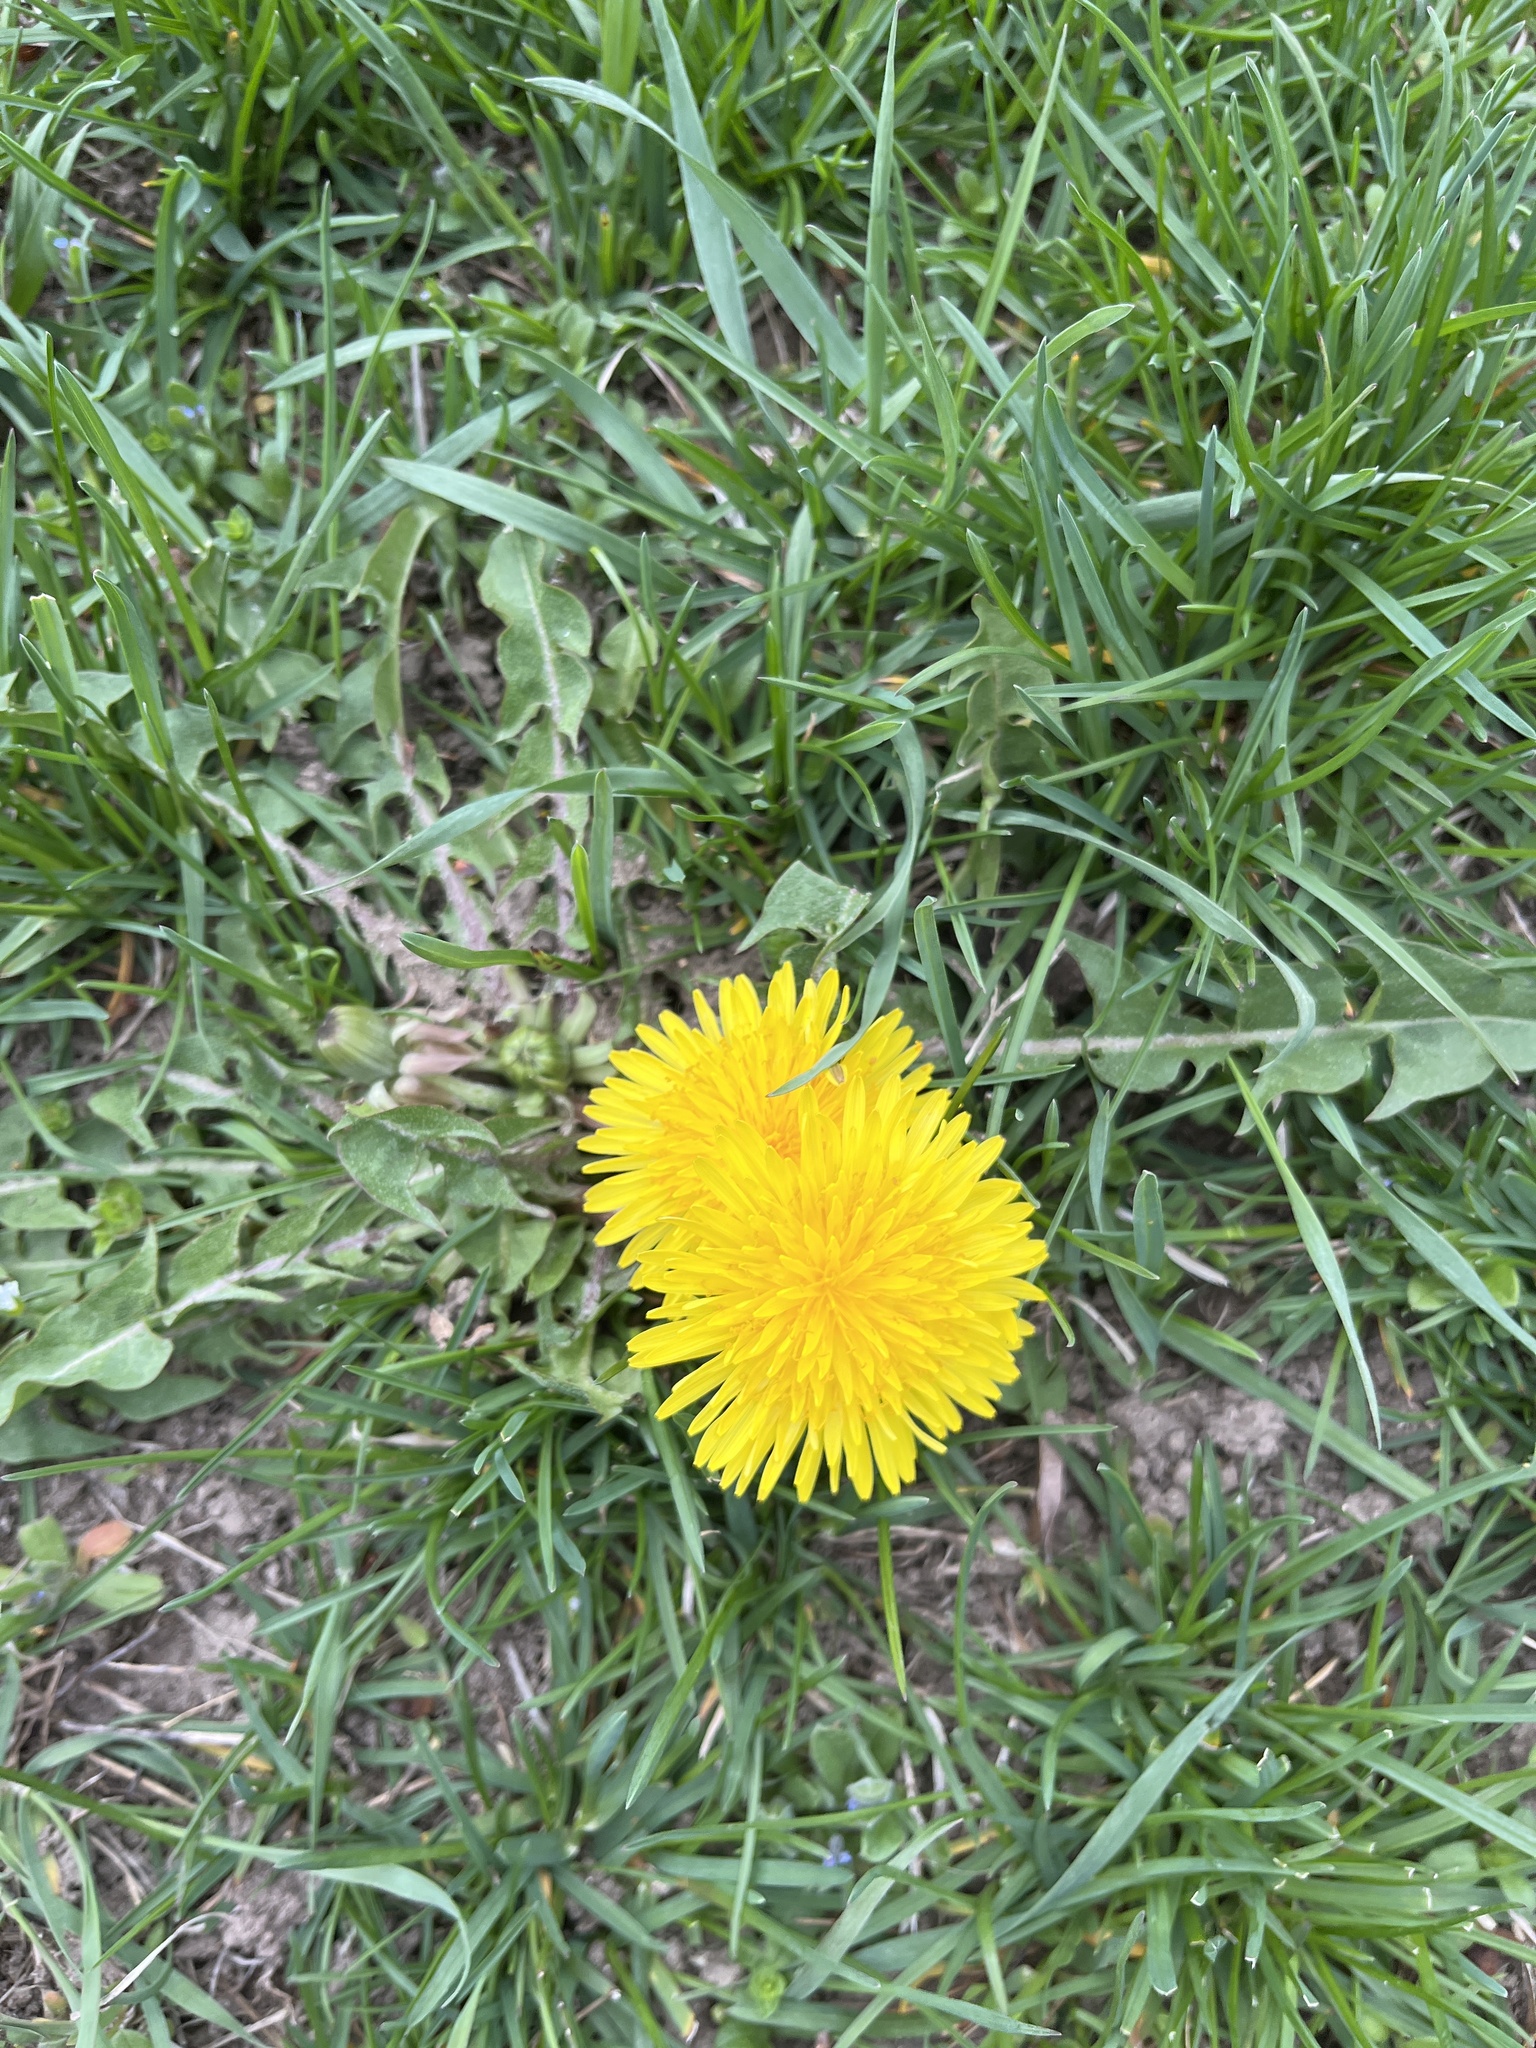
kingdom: Plantae
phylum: Tracheophyta
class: Magnoliopsida
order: Asterales
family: Asteraceae
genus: Taraxacum
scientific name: Taraxacum officinale
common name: Common dandelion
